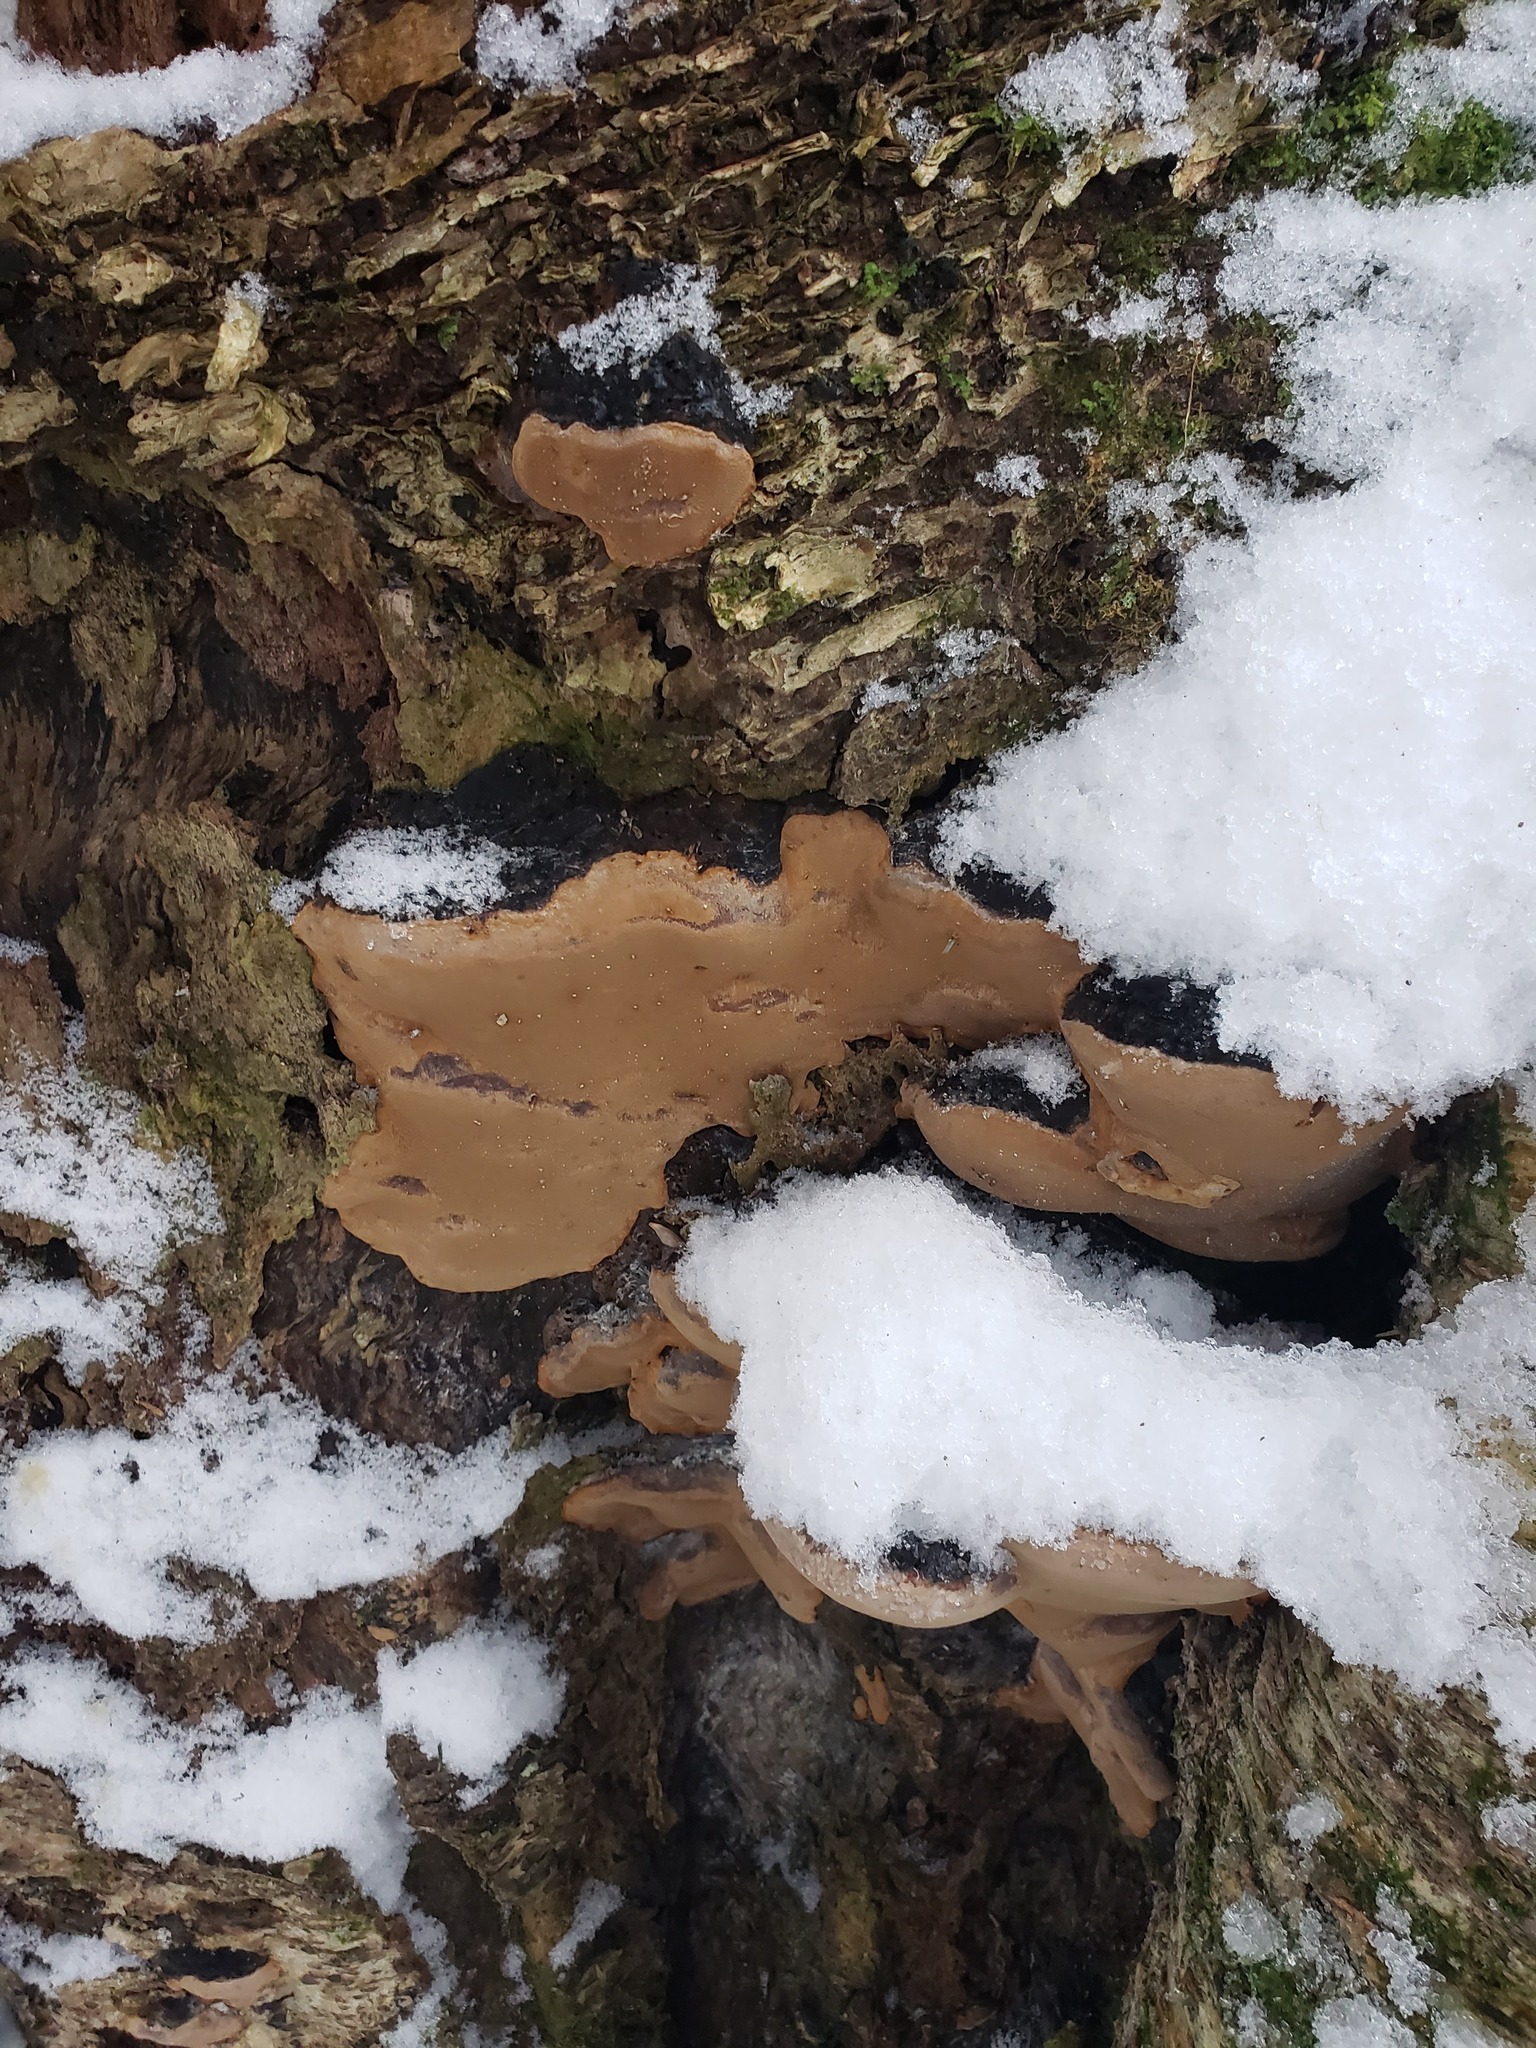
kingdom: Fungi
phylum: Basidiomycota
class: Agaricomycetes
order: Hymenochaetales
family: Hymenochaetaceae
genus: Phellinus
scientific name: Phellinus igniarius
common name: Willow bracket
